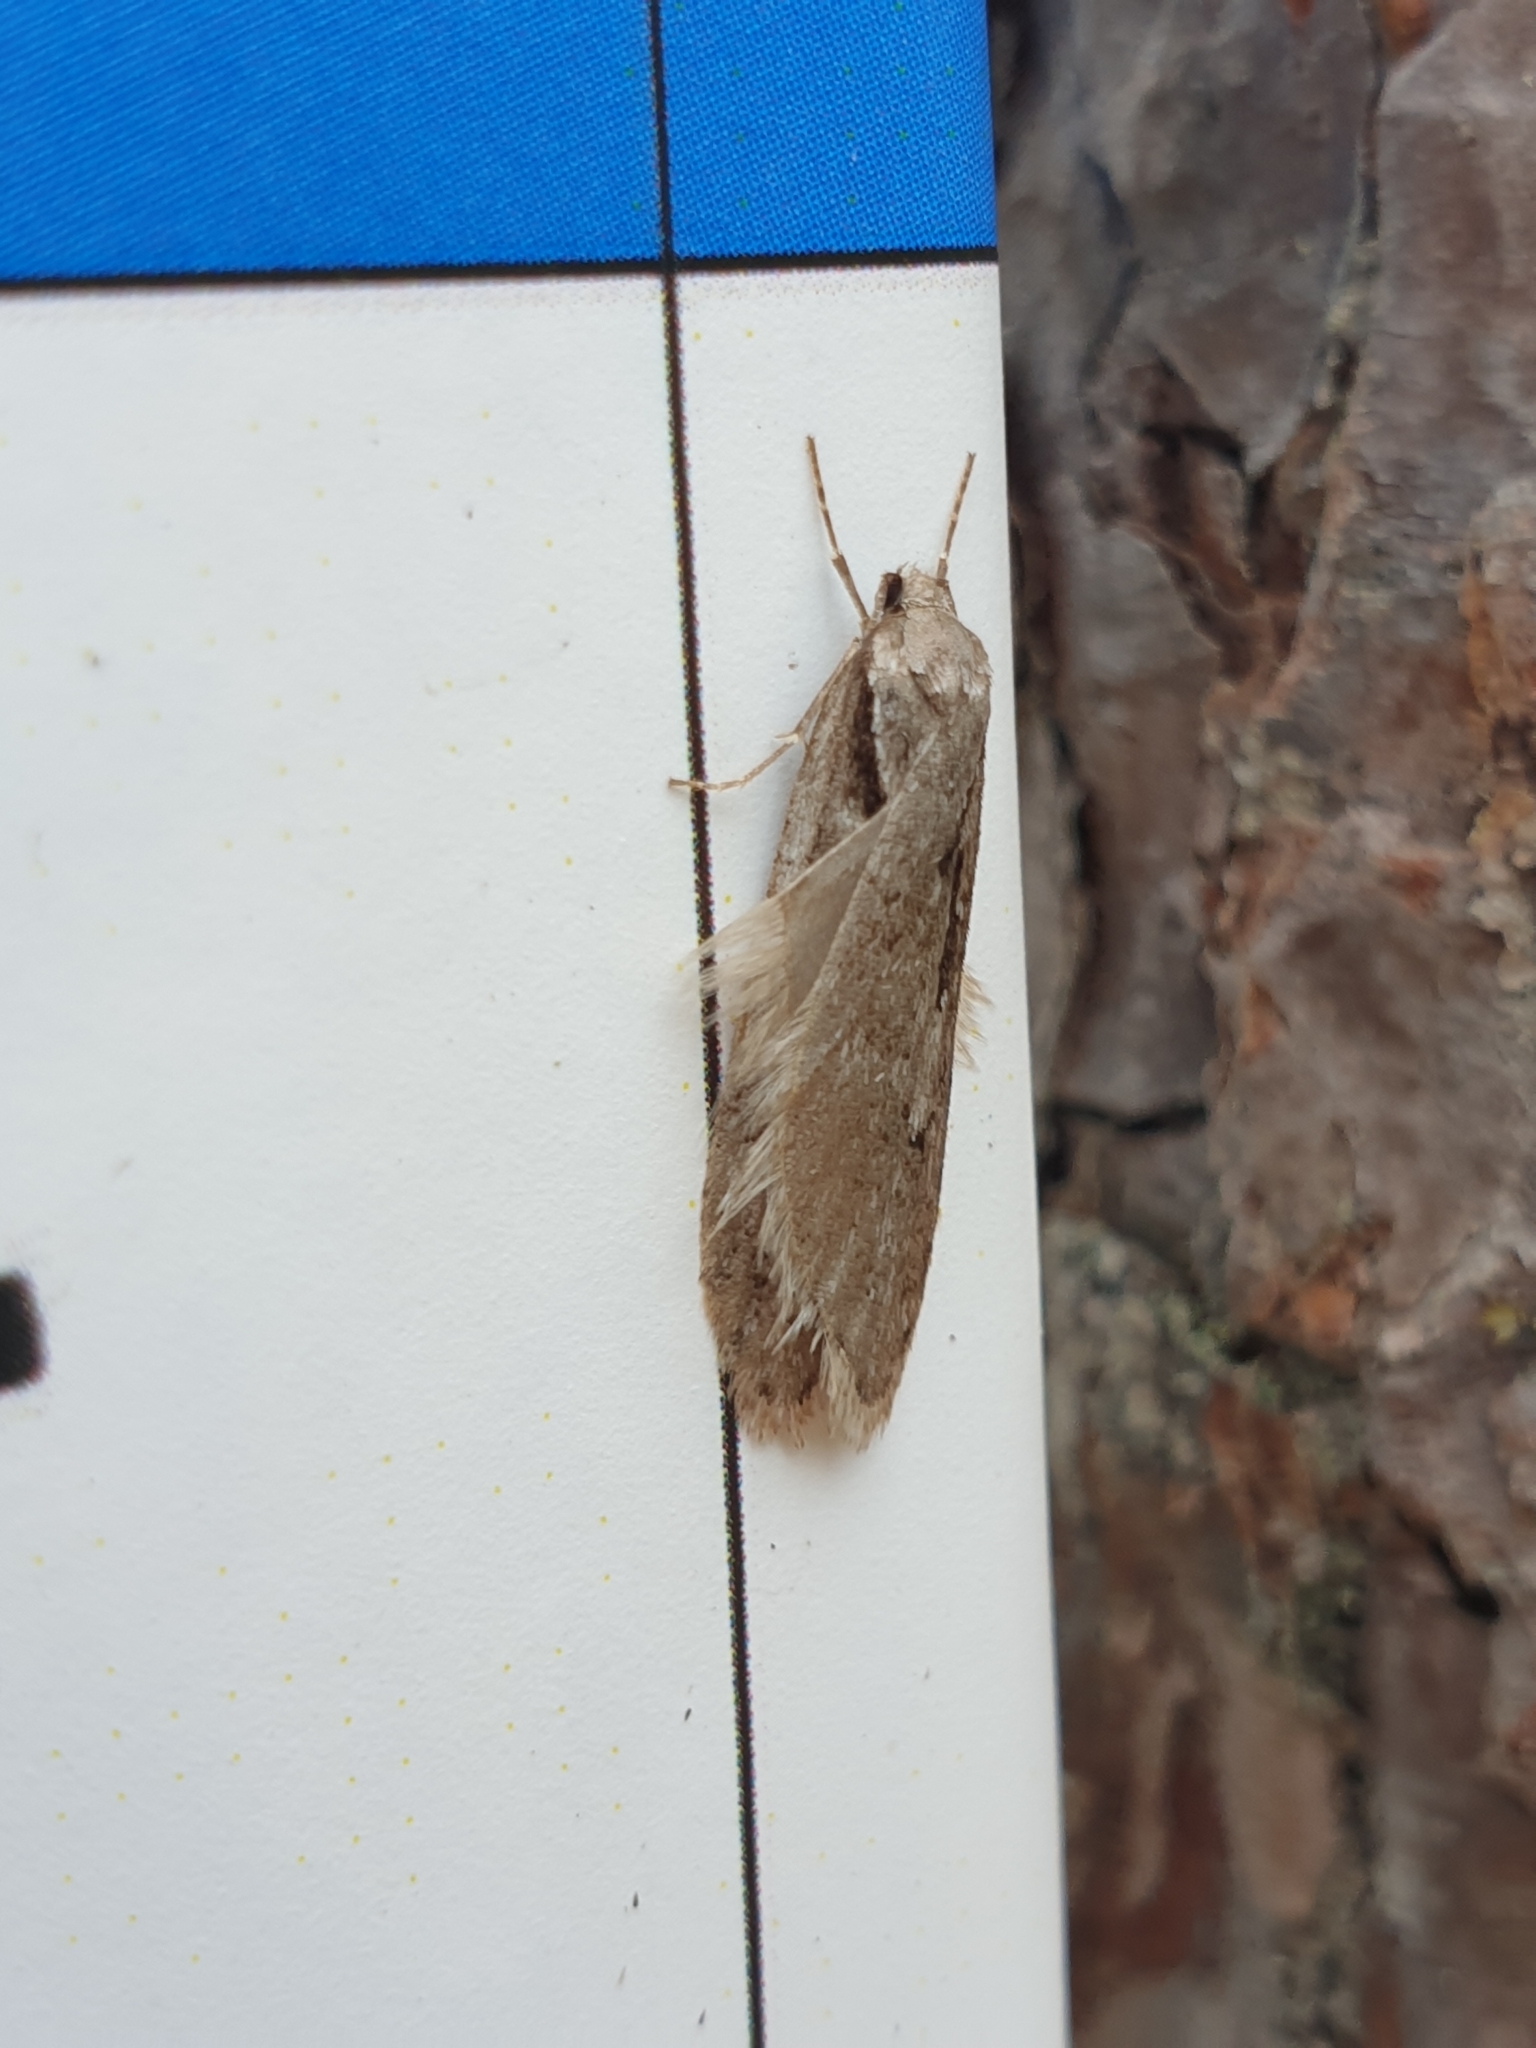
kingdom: Animalia
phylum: Arthropoda
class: Insecta
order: Lepidoptera
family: Depressariidae
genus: Semioscopis
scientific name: Semioscopis avellanella
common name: Early flat-body
